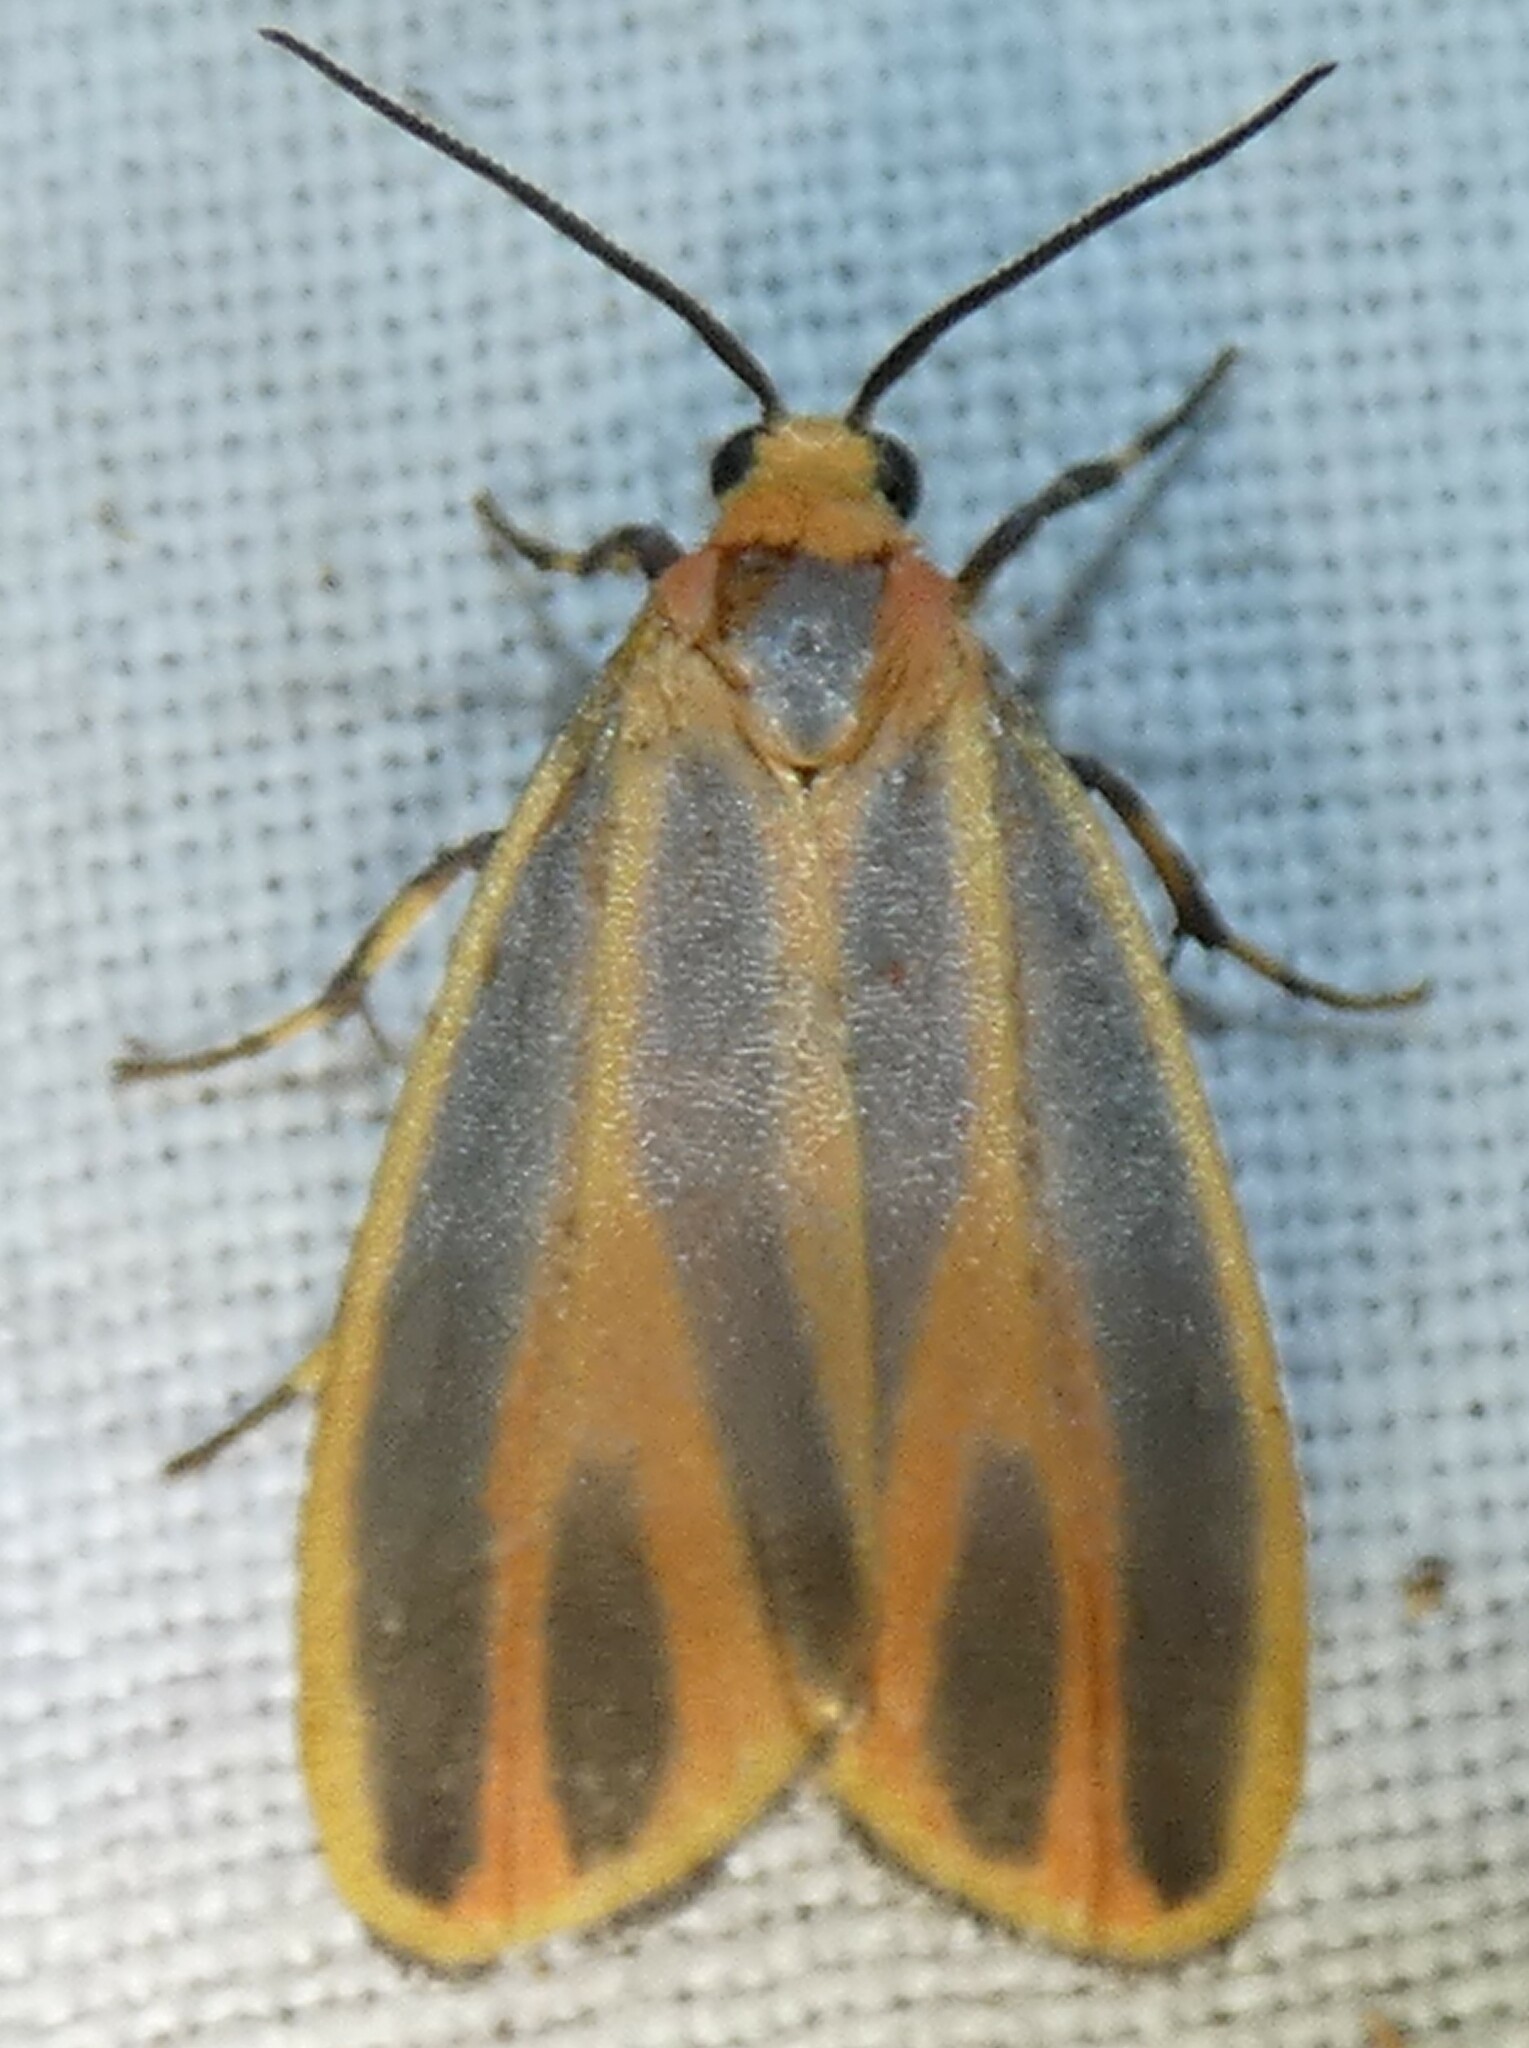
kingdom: Animalia
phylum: Arthropoda
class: Insecta
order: Lepidoptera
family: Erebidae
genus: Hypoprepia
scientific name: Hypoprepia fucosa
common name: Painted lichen moth
